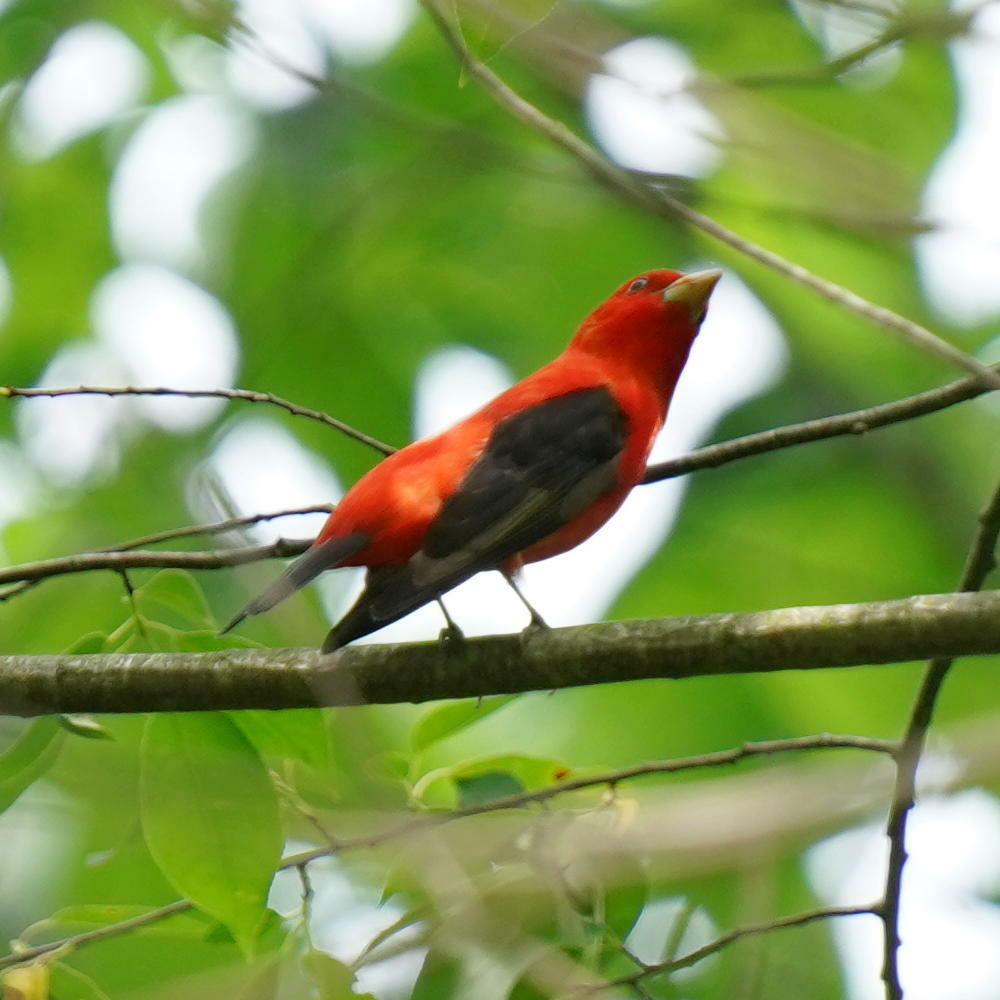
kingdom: Animalia
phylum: Chordata
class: Aves
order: Passeriformes
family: Cardinalidae
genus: Piranga
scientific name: Piranga olivacea
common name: Scarlet tanager
